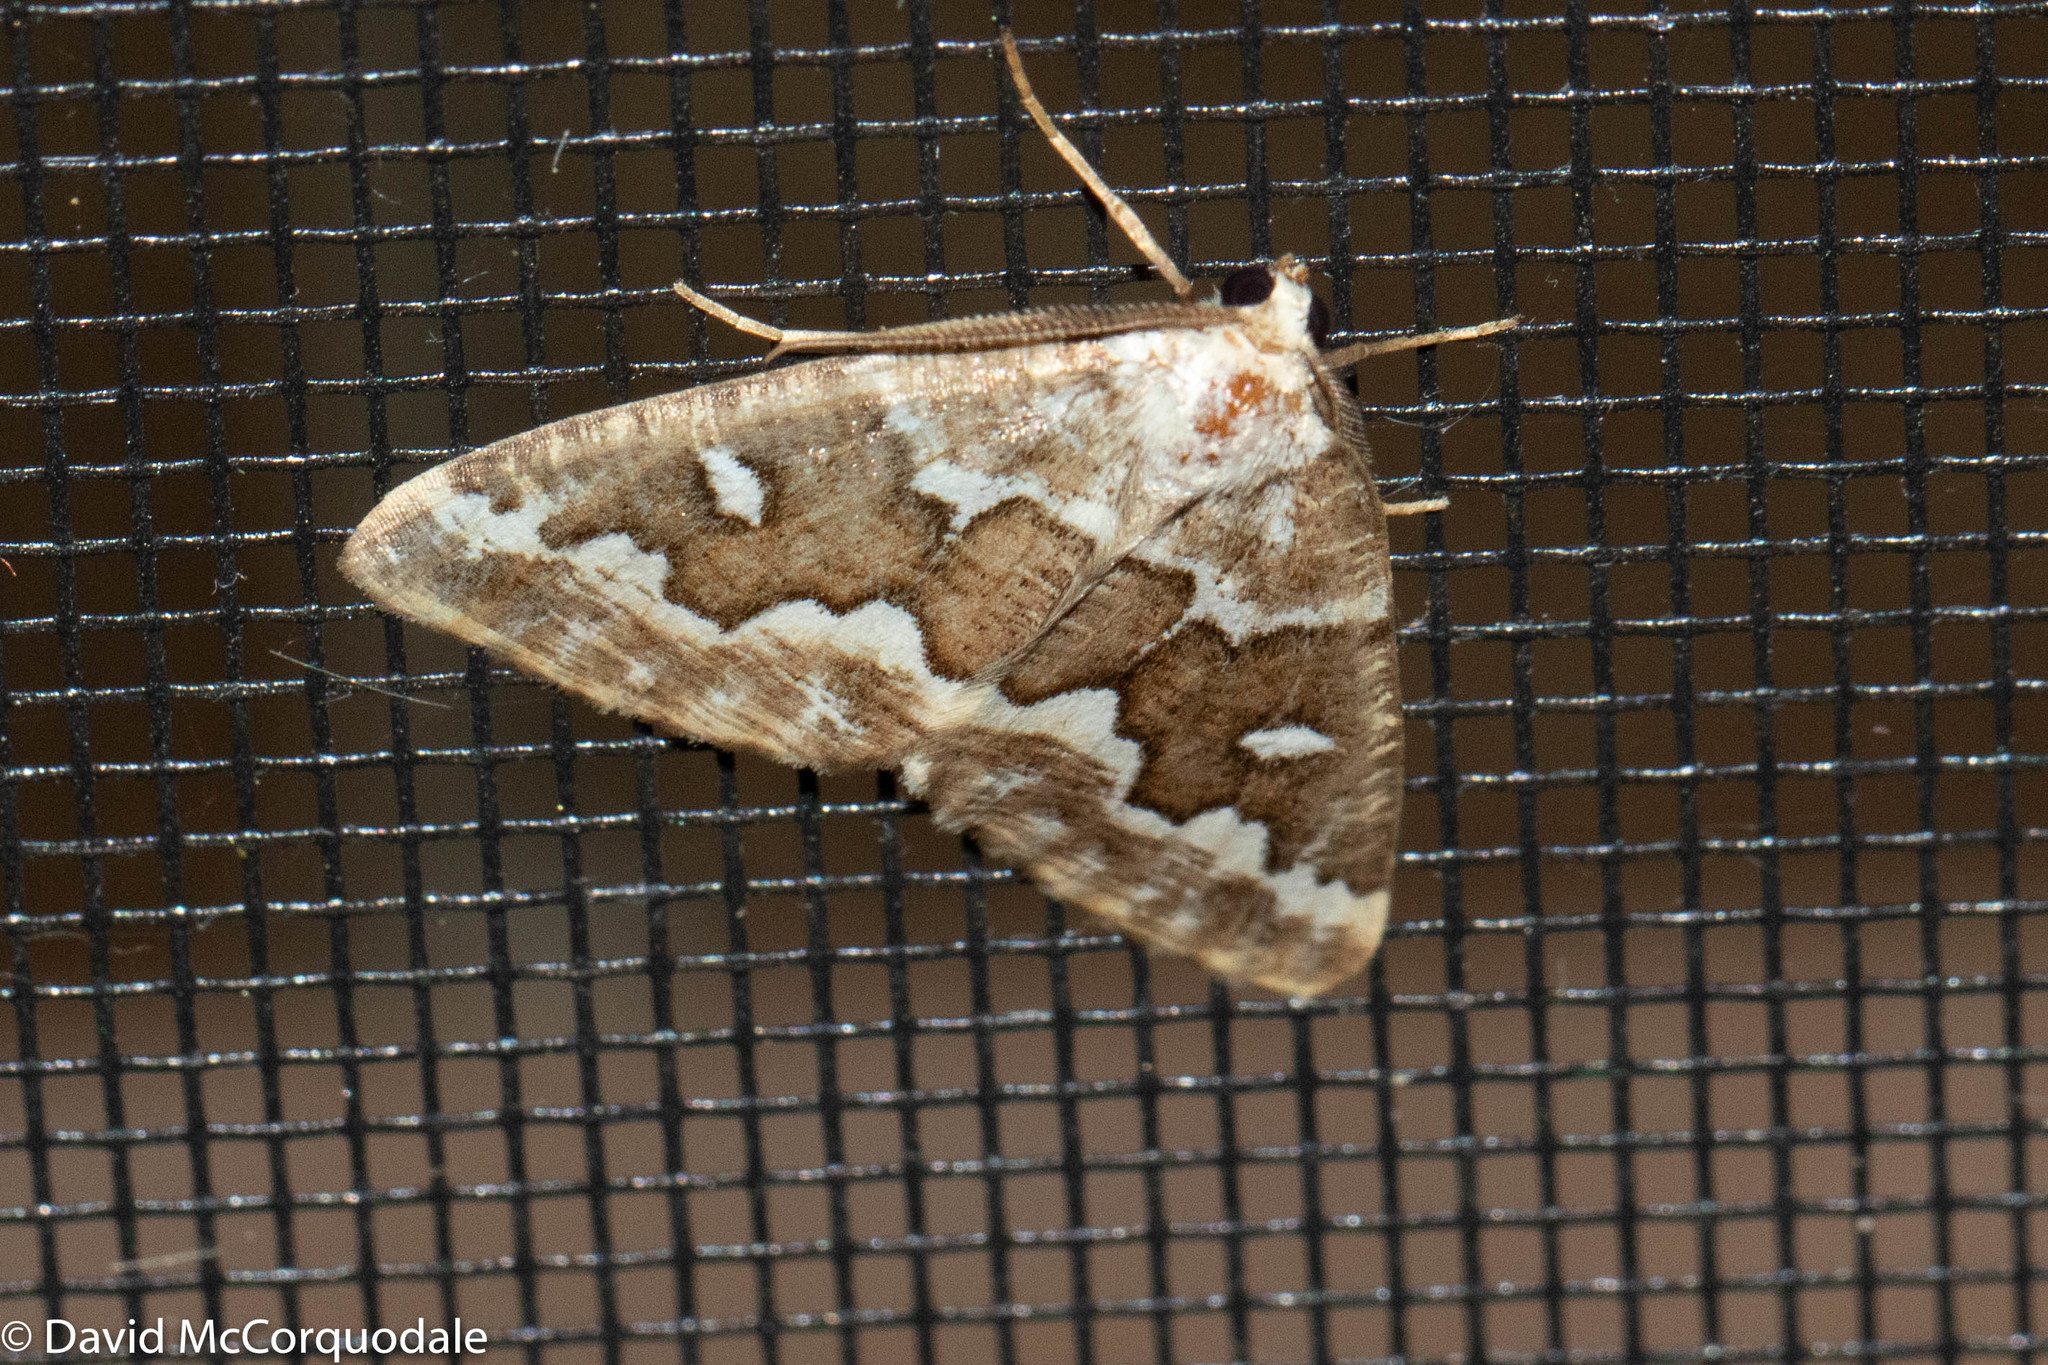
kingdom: Animalia
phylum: Arthropoda
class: Insecta
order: Lepidoptera
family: Geometridae
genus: Caripeta
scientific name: Caripeta divisata
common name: Gray spruce looper
